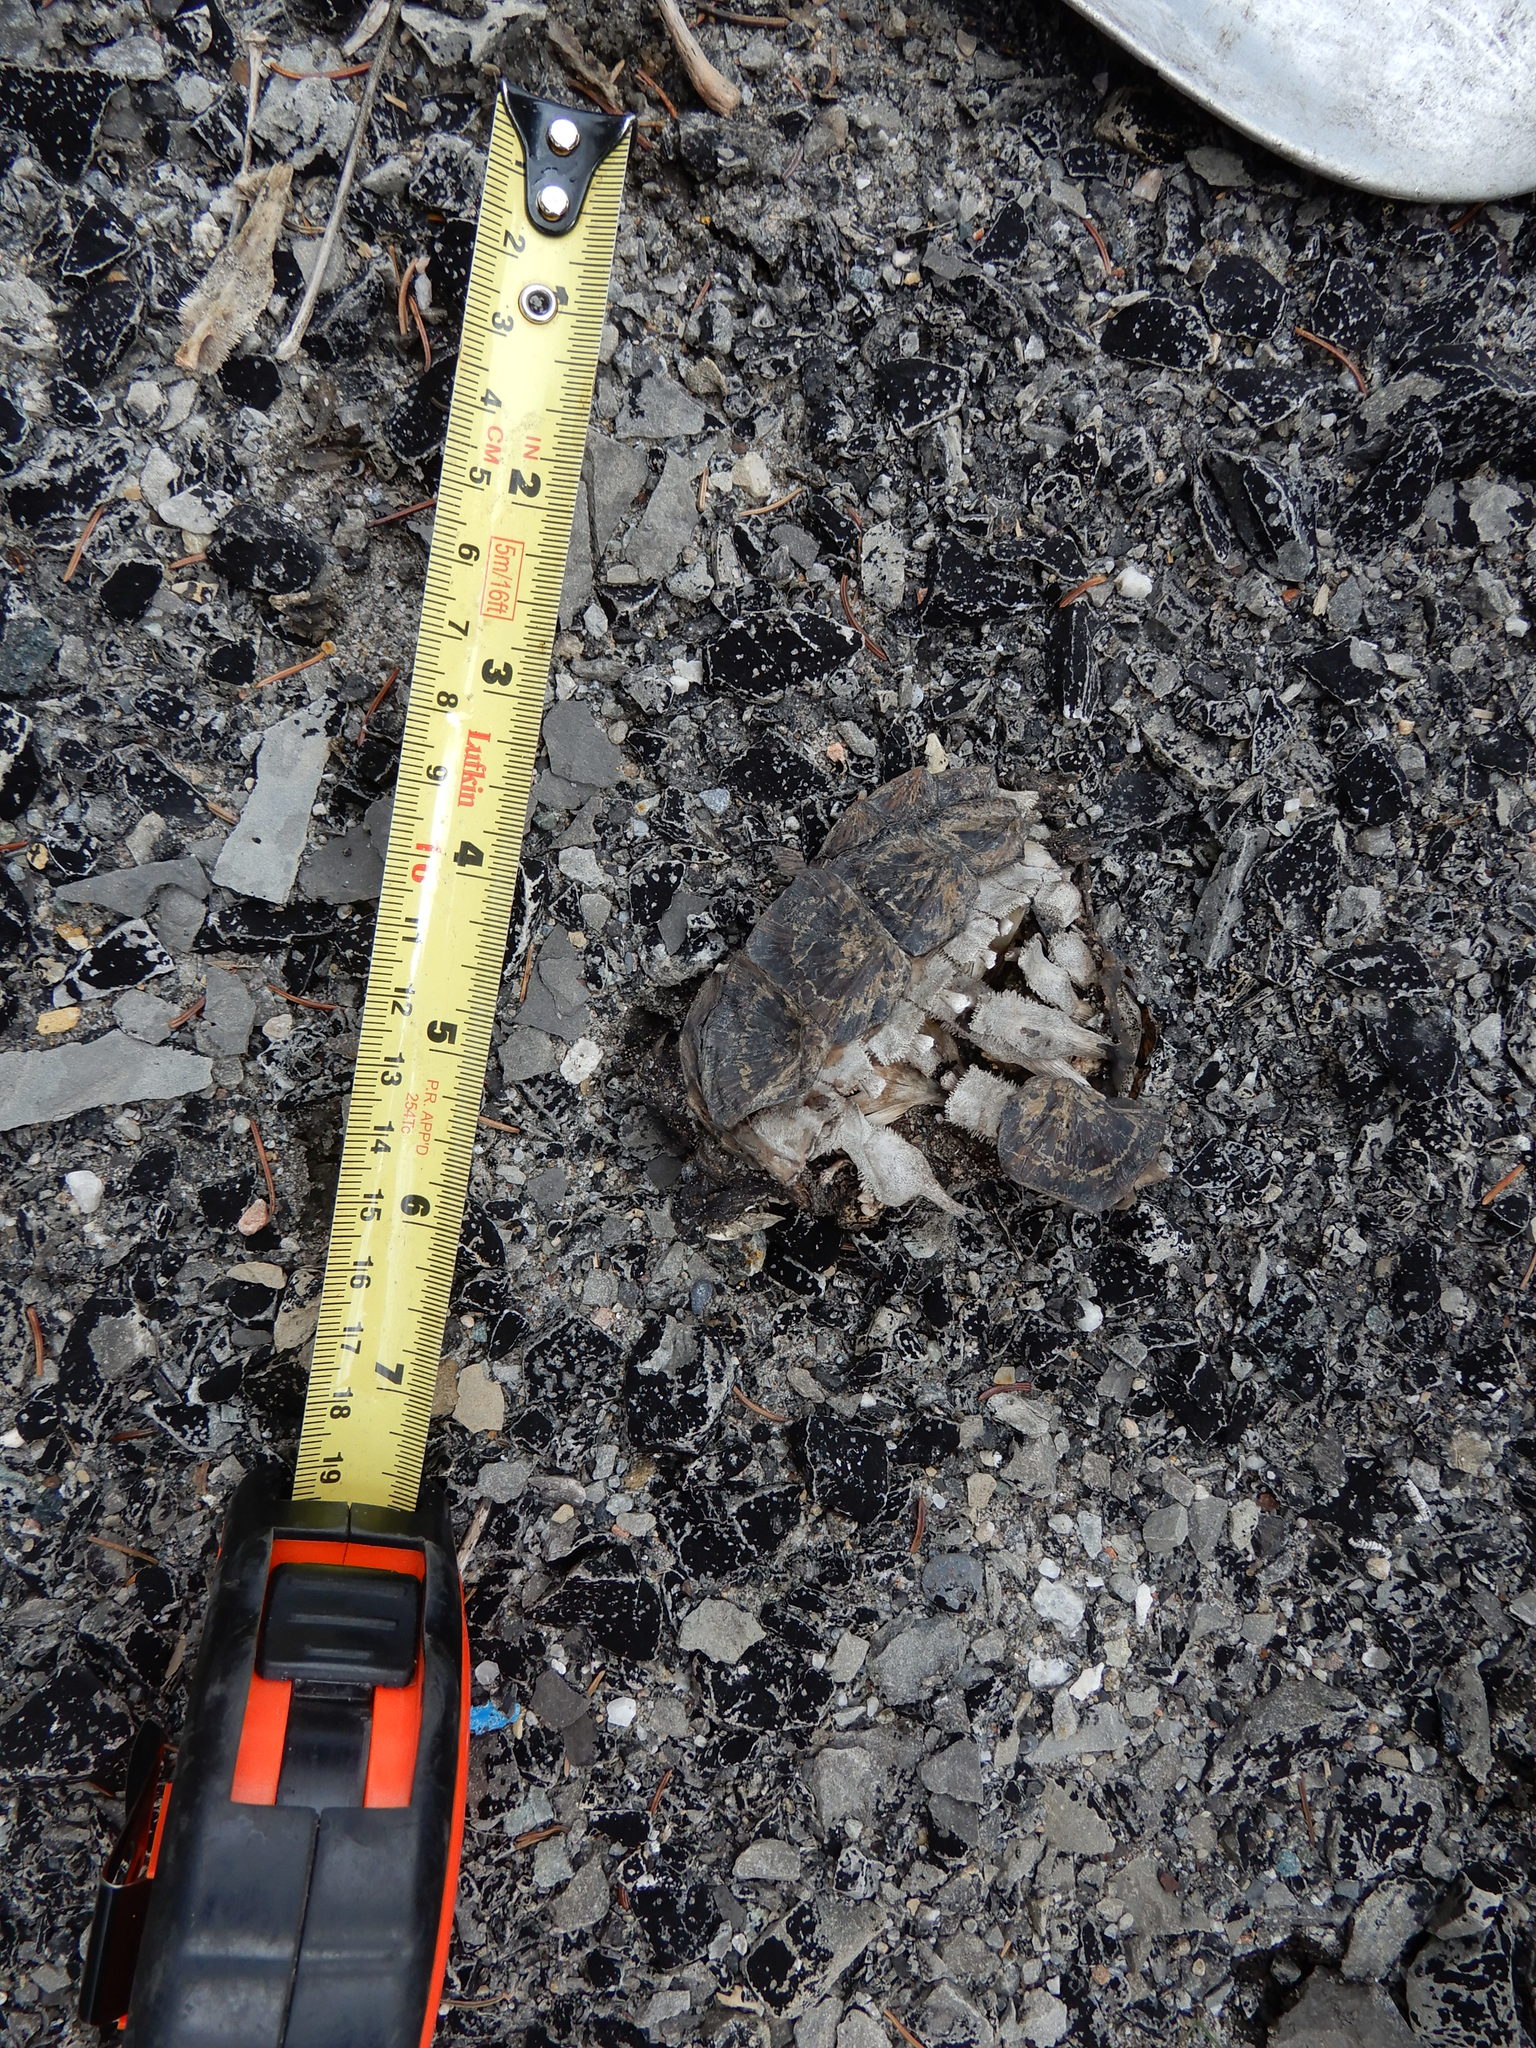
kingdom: Animalia
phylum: Chordata
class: Testudines
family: Chelydridae
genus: Chelydra
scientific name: Chelydra serpentina
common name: Common snapping turtle
